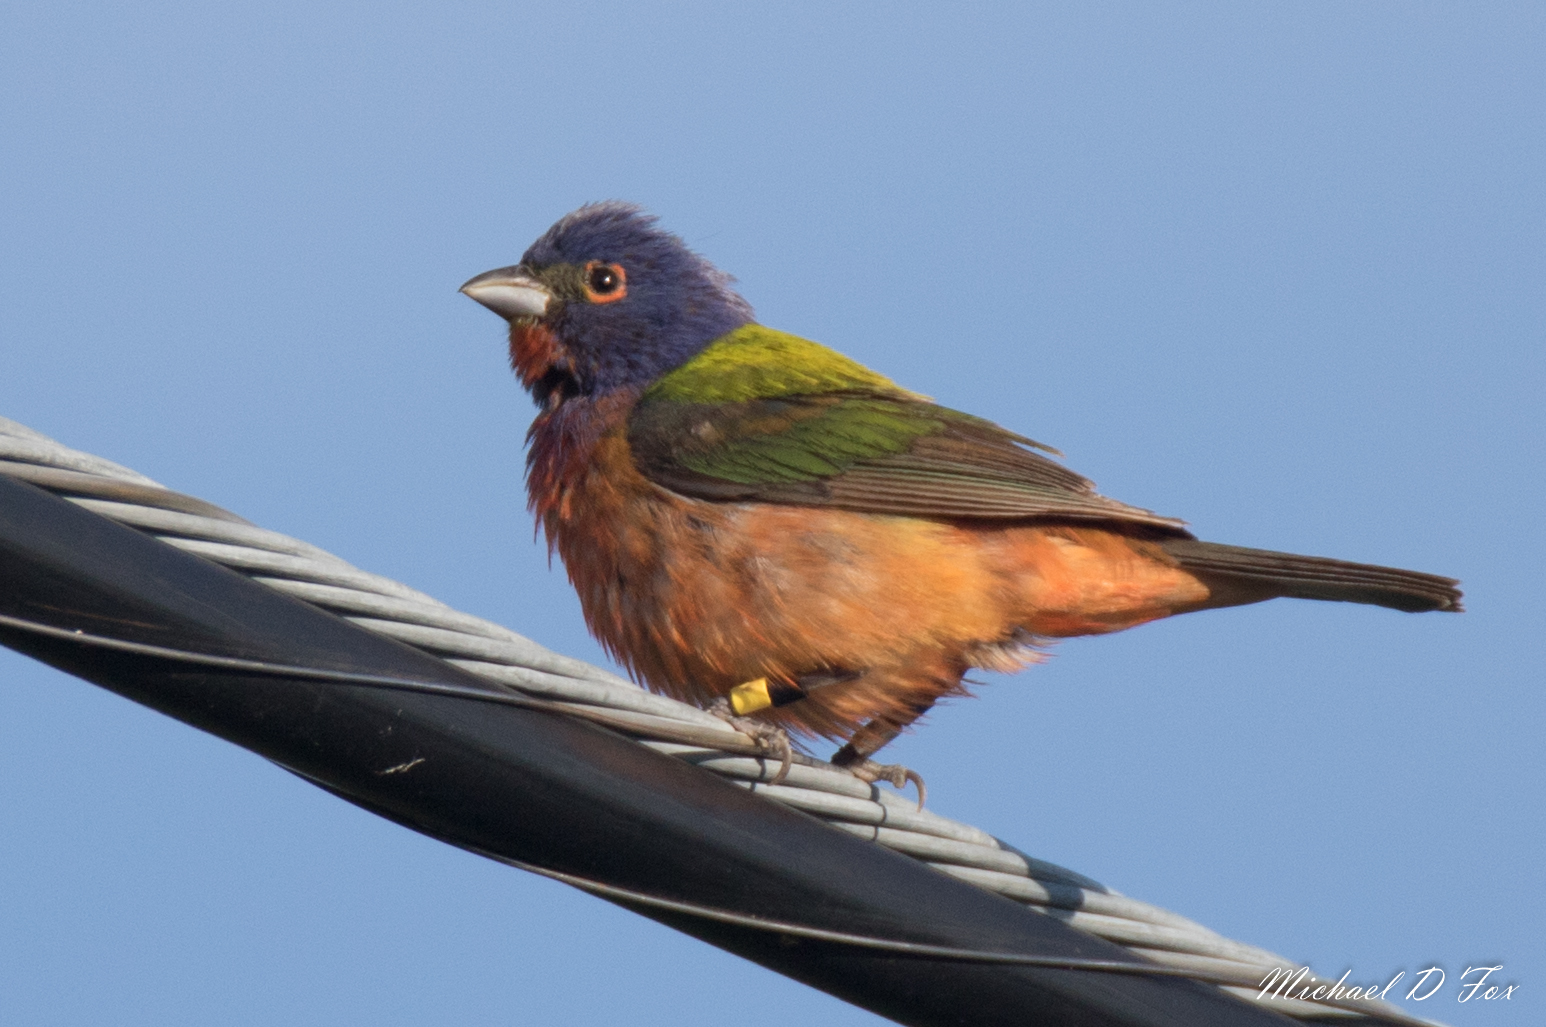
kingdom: Animalia
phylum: Chordata
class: Aves
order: Passeriformes
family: Cardinalidae
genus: Passerina
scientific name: Passerina ciris
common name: Painted bunting
